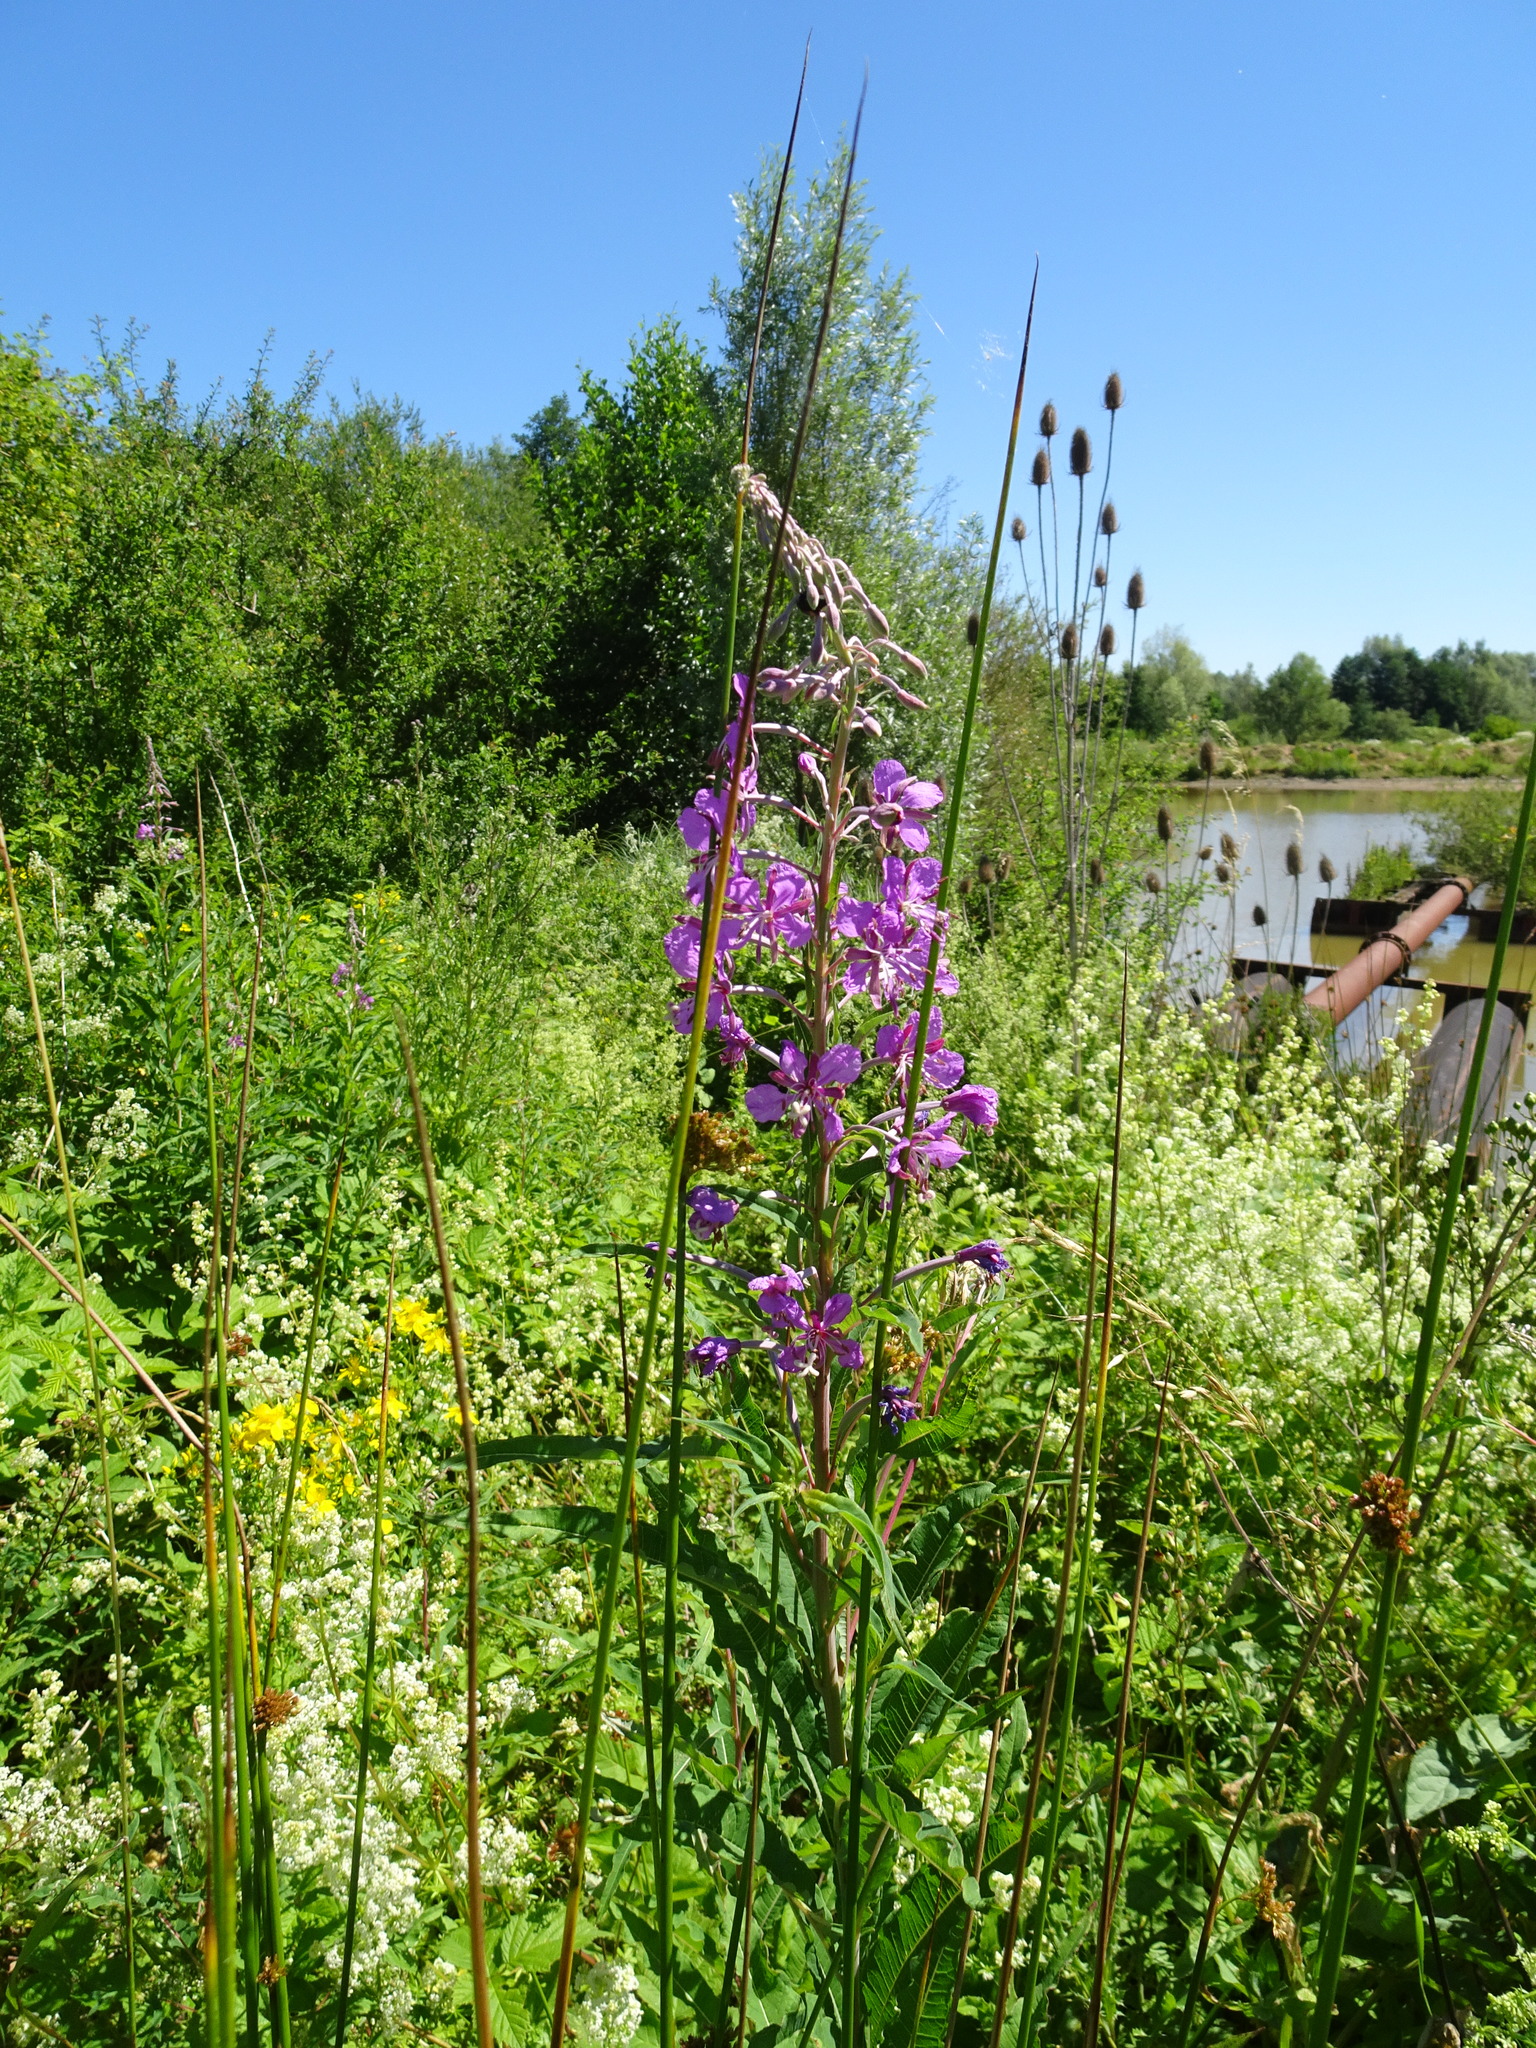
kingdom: Plantae
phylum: Tracheophyta
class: Magnoliopsida
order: Myrtales
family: Onagraceae
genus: Chamaenerion
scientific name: Chamaenerion angustifolium
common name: Fireweed
